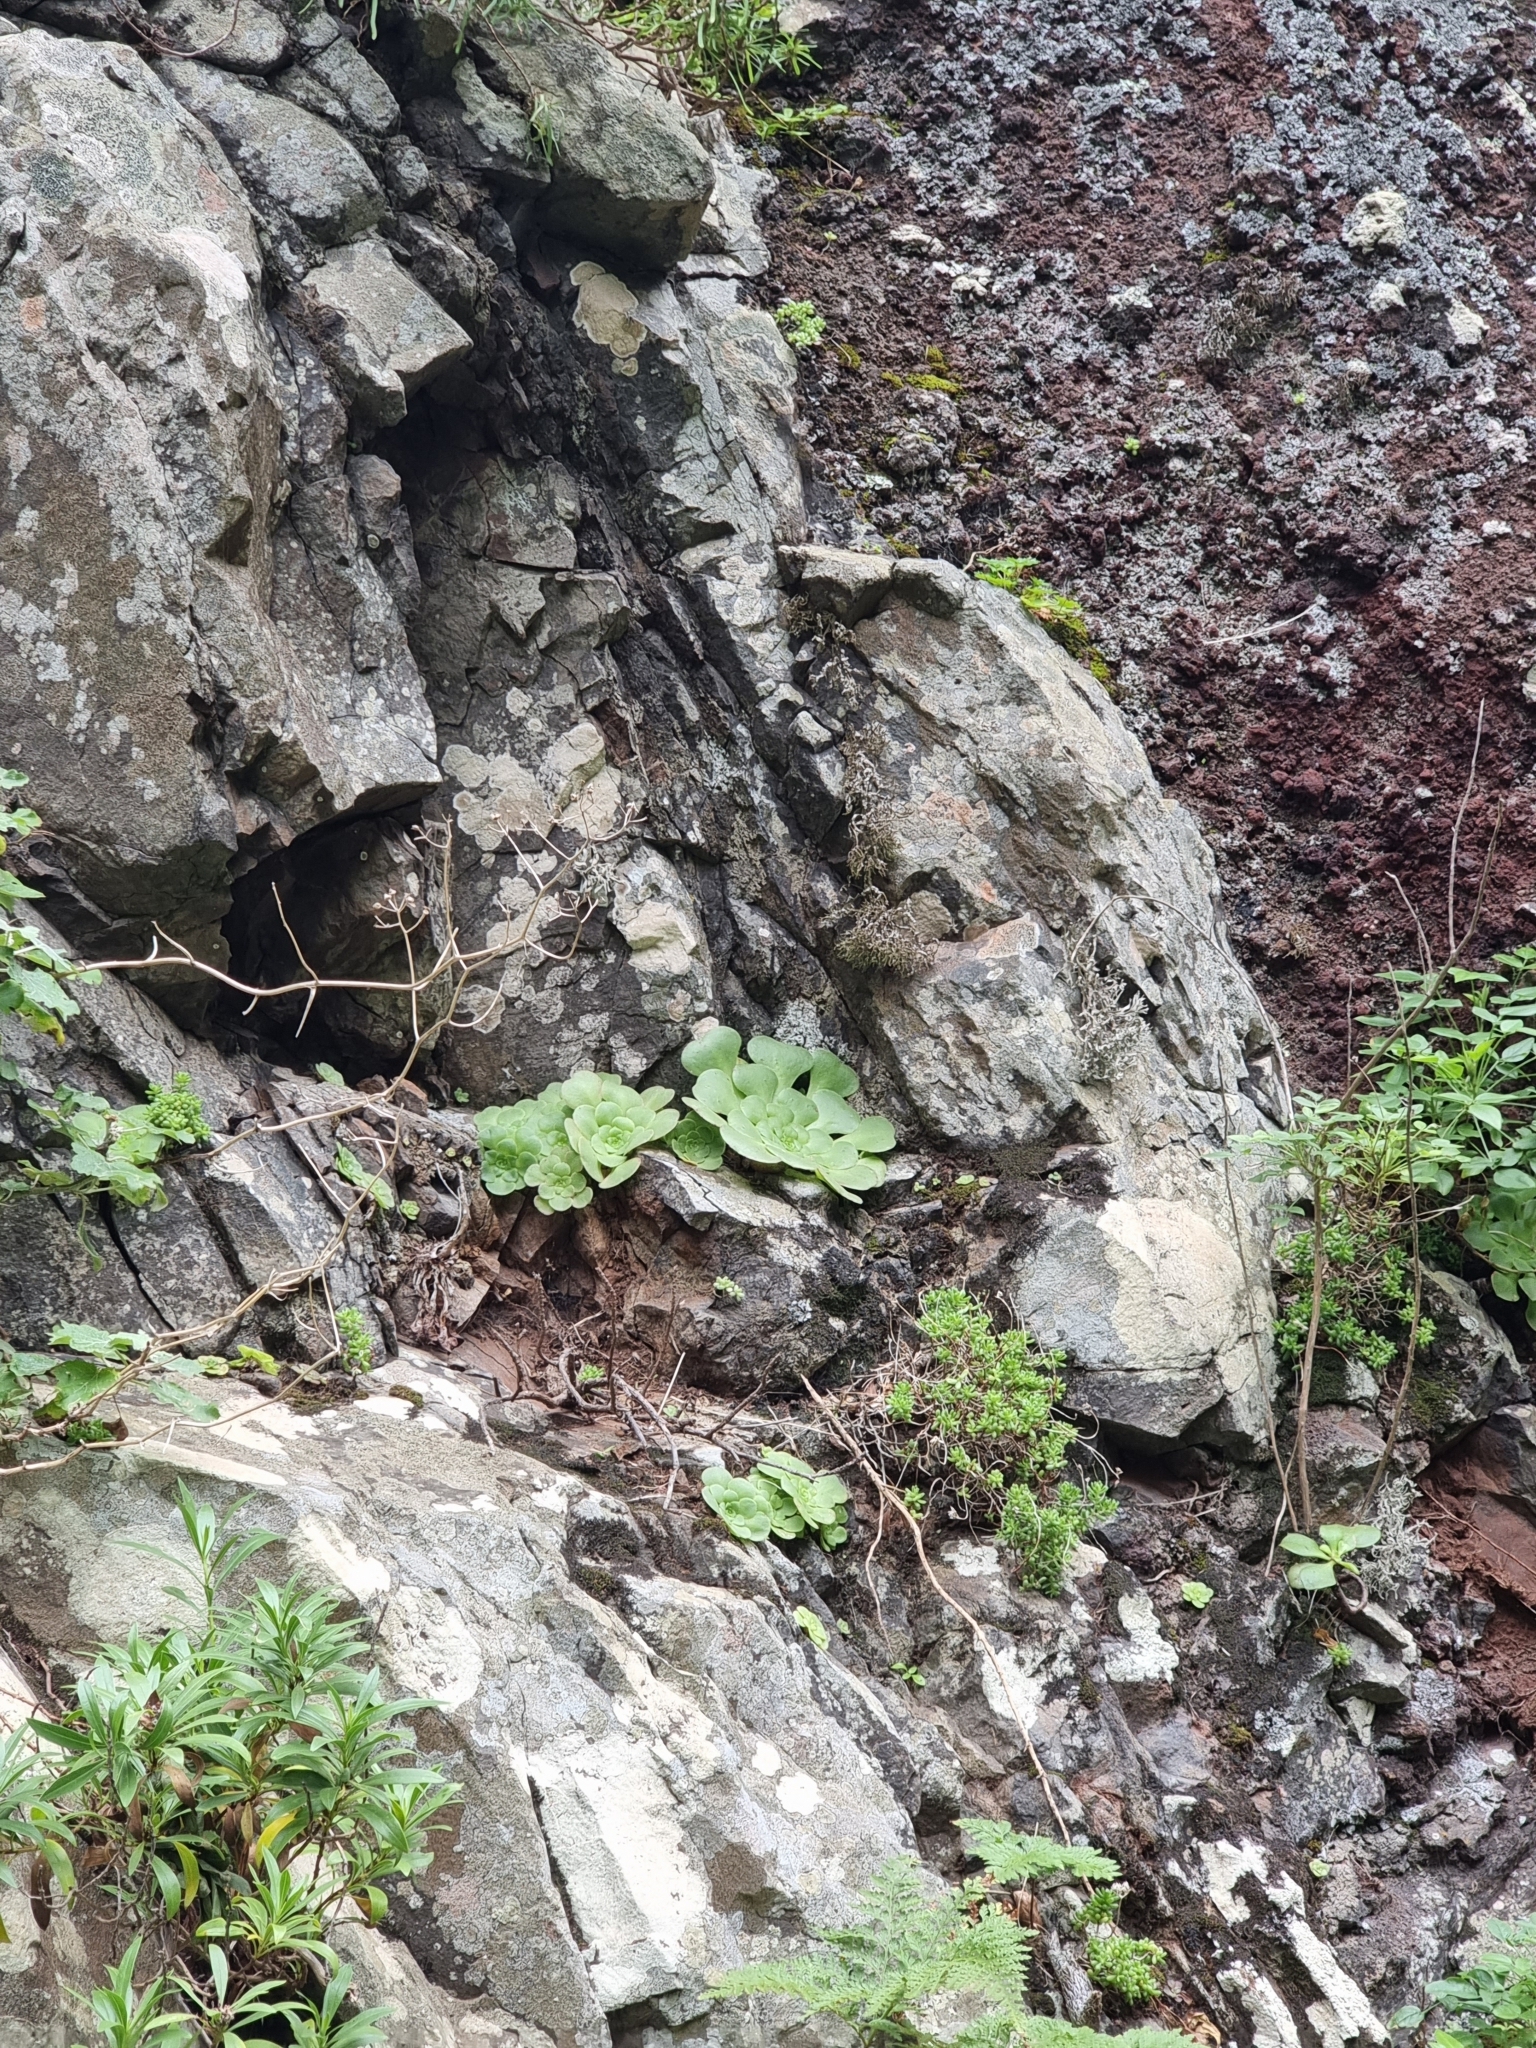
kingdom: Plantae
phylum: Tracheophyta
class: Magnoliopsida
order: Saxifragales
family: Crassulaceae
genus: Aeonium
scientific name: Aeonium glandulosum
